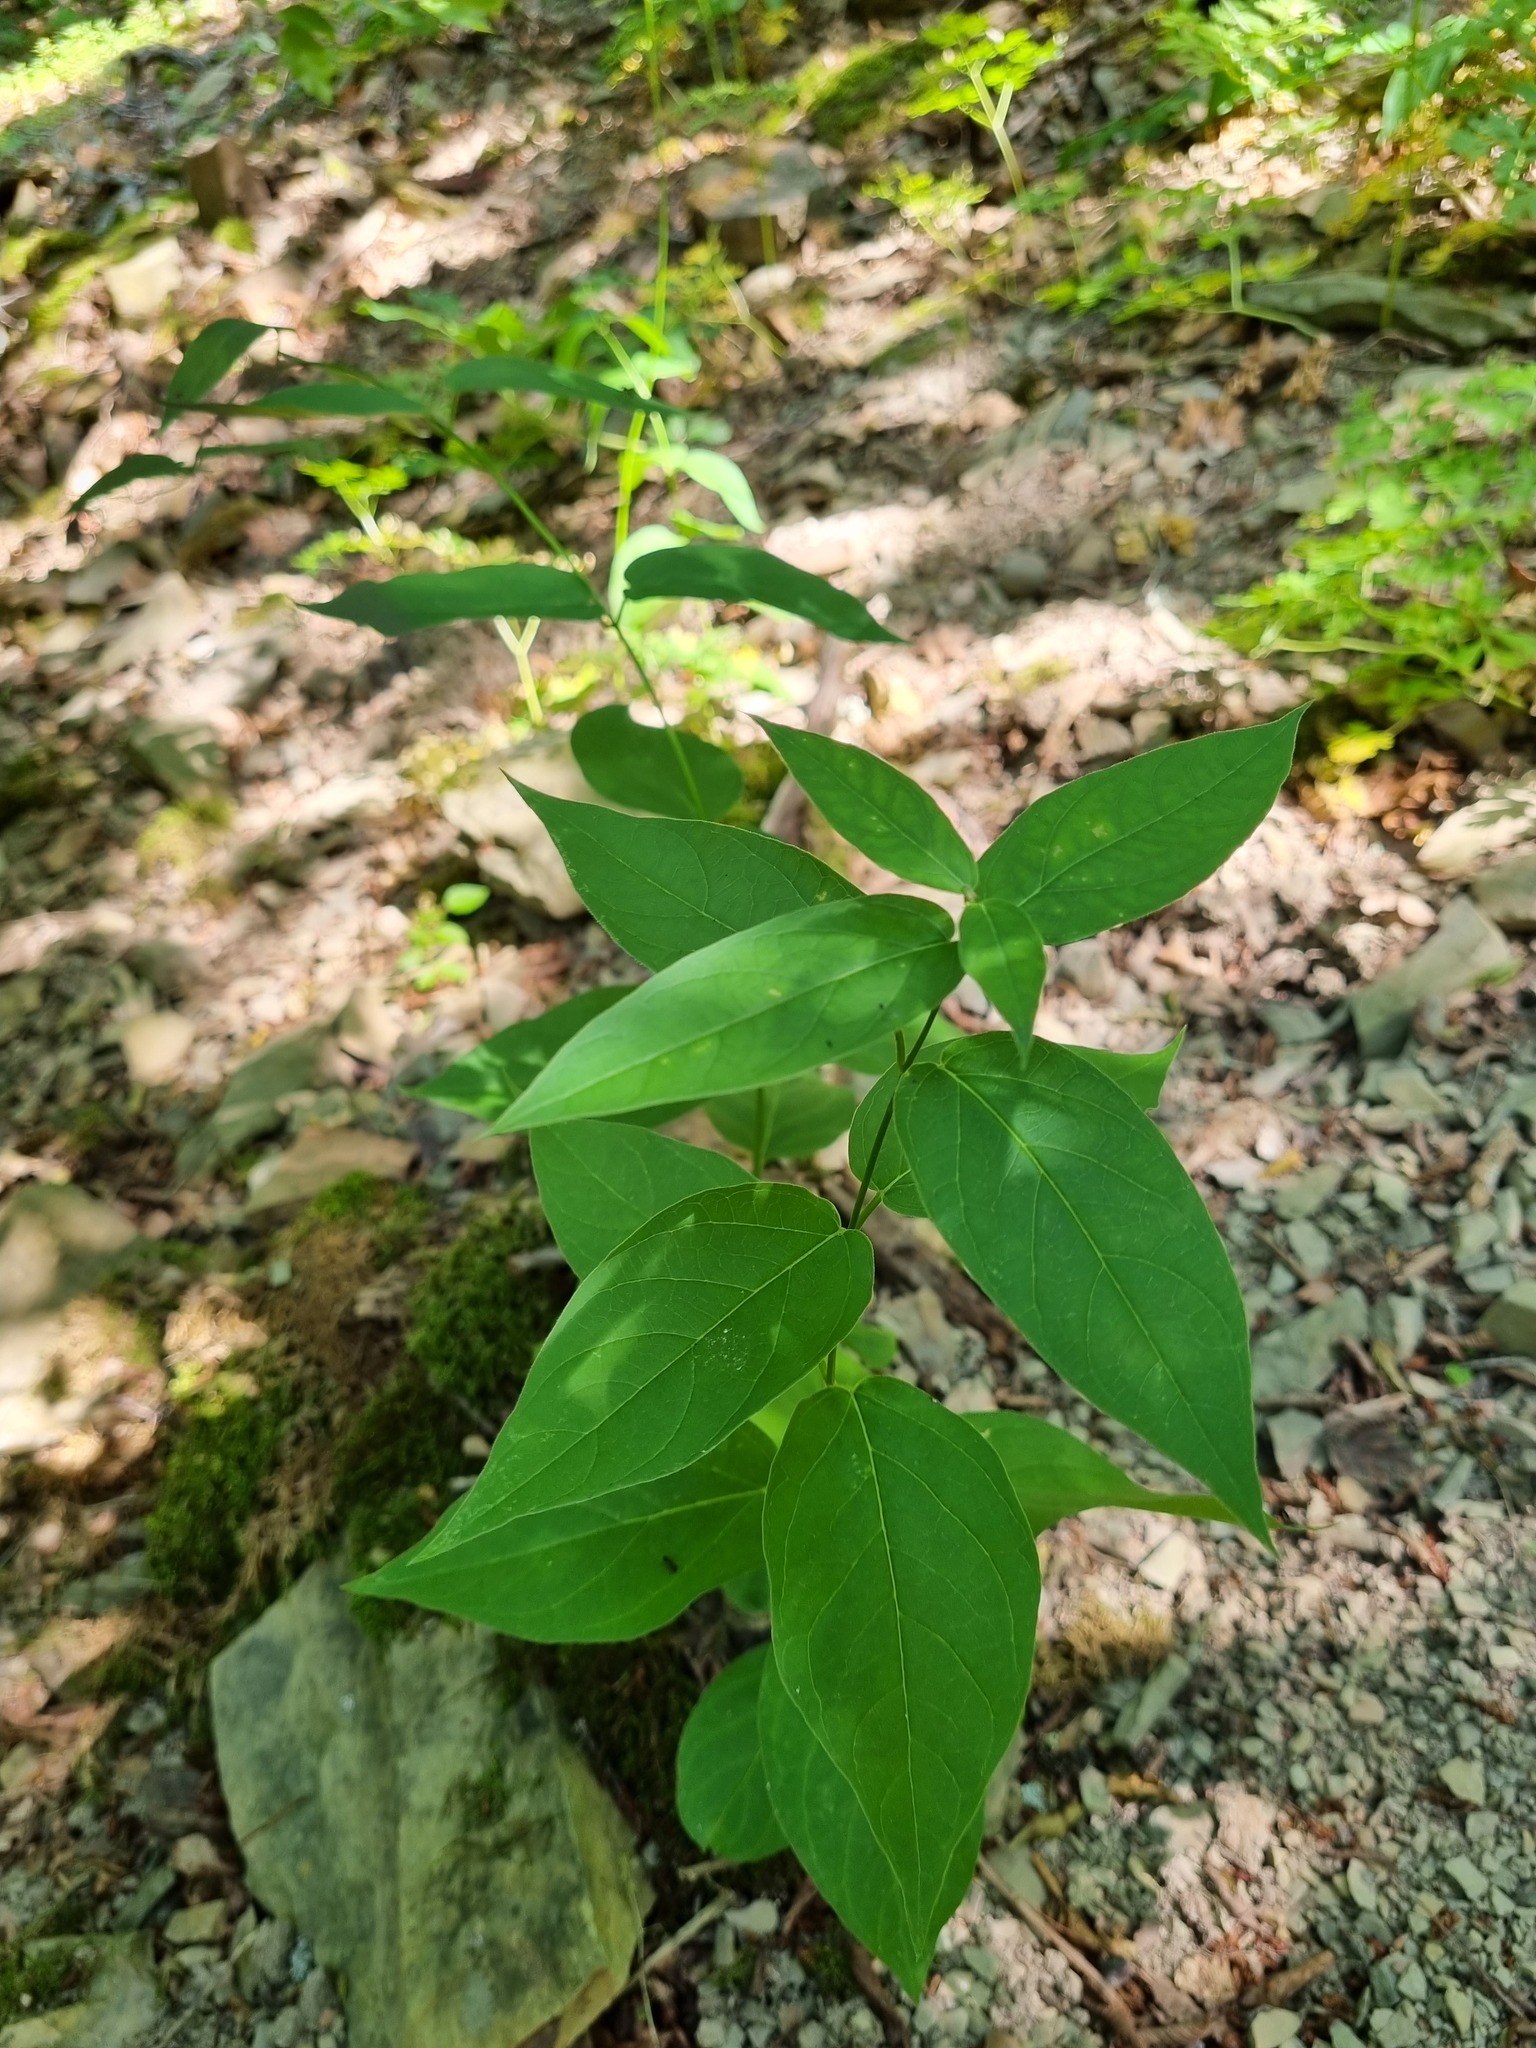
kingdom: Plantae
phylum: Tracheophyta
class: Magnoliopsida
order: Gentianales
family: Apocynaceae
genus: Vincetoxicum
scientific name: Vincetoxicum scandens
